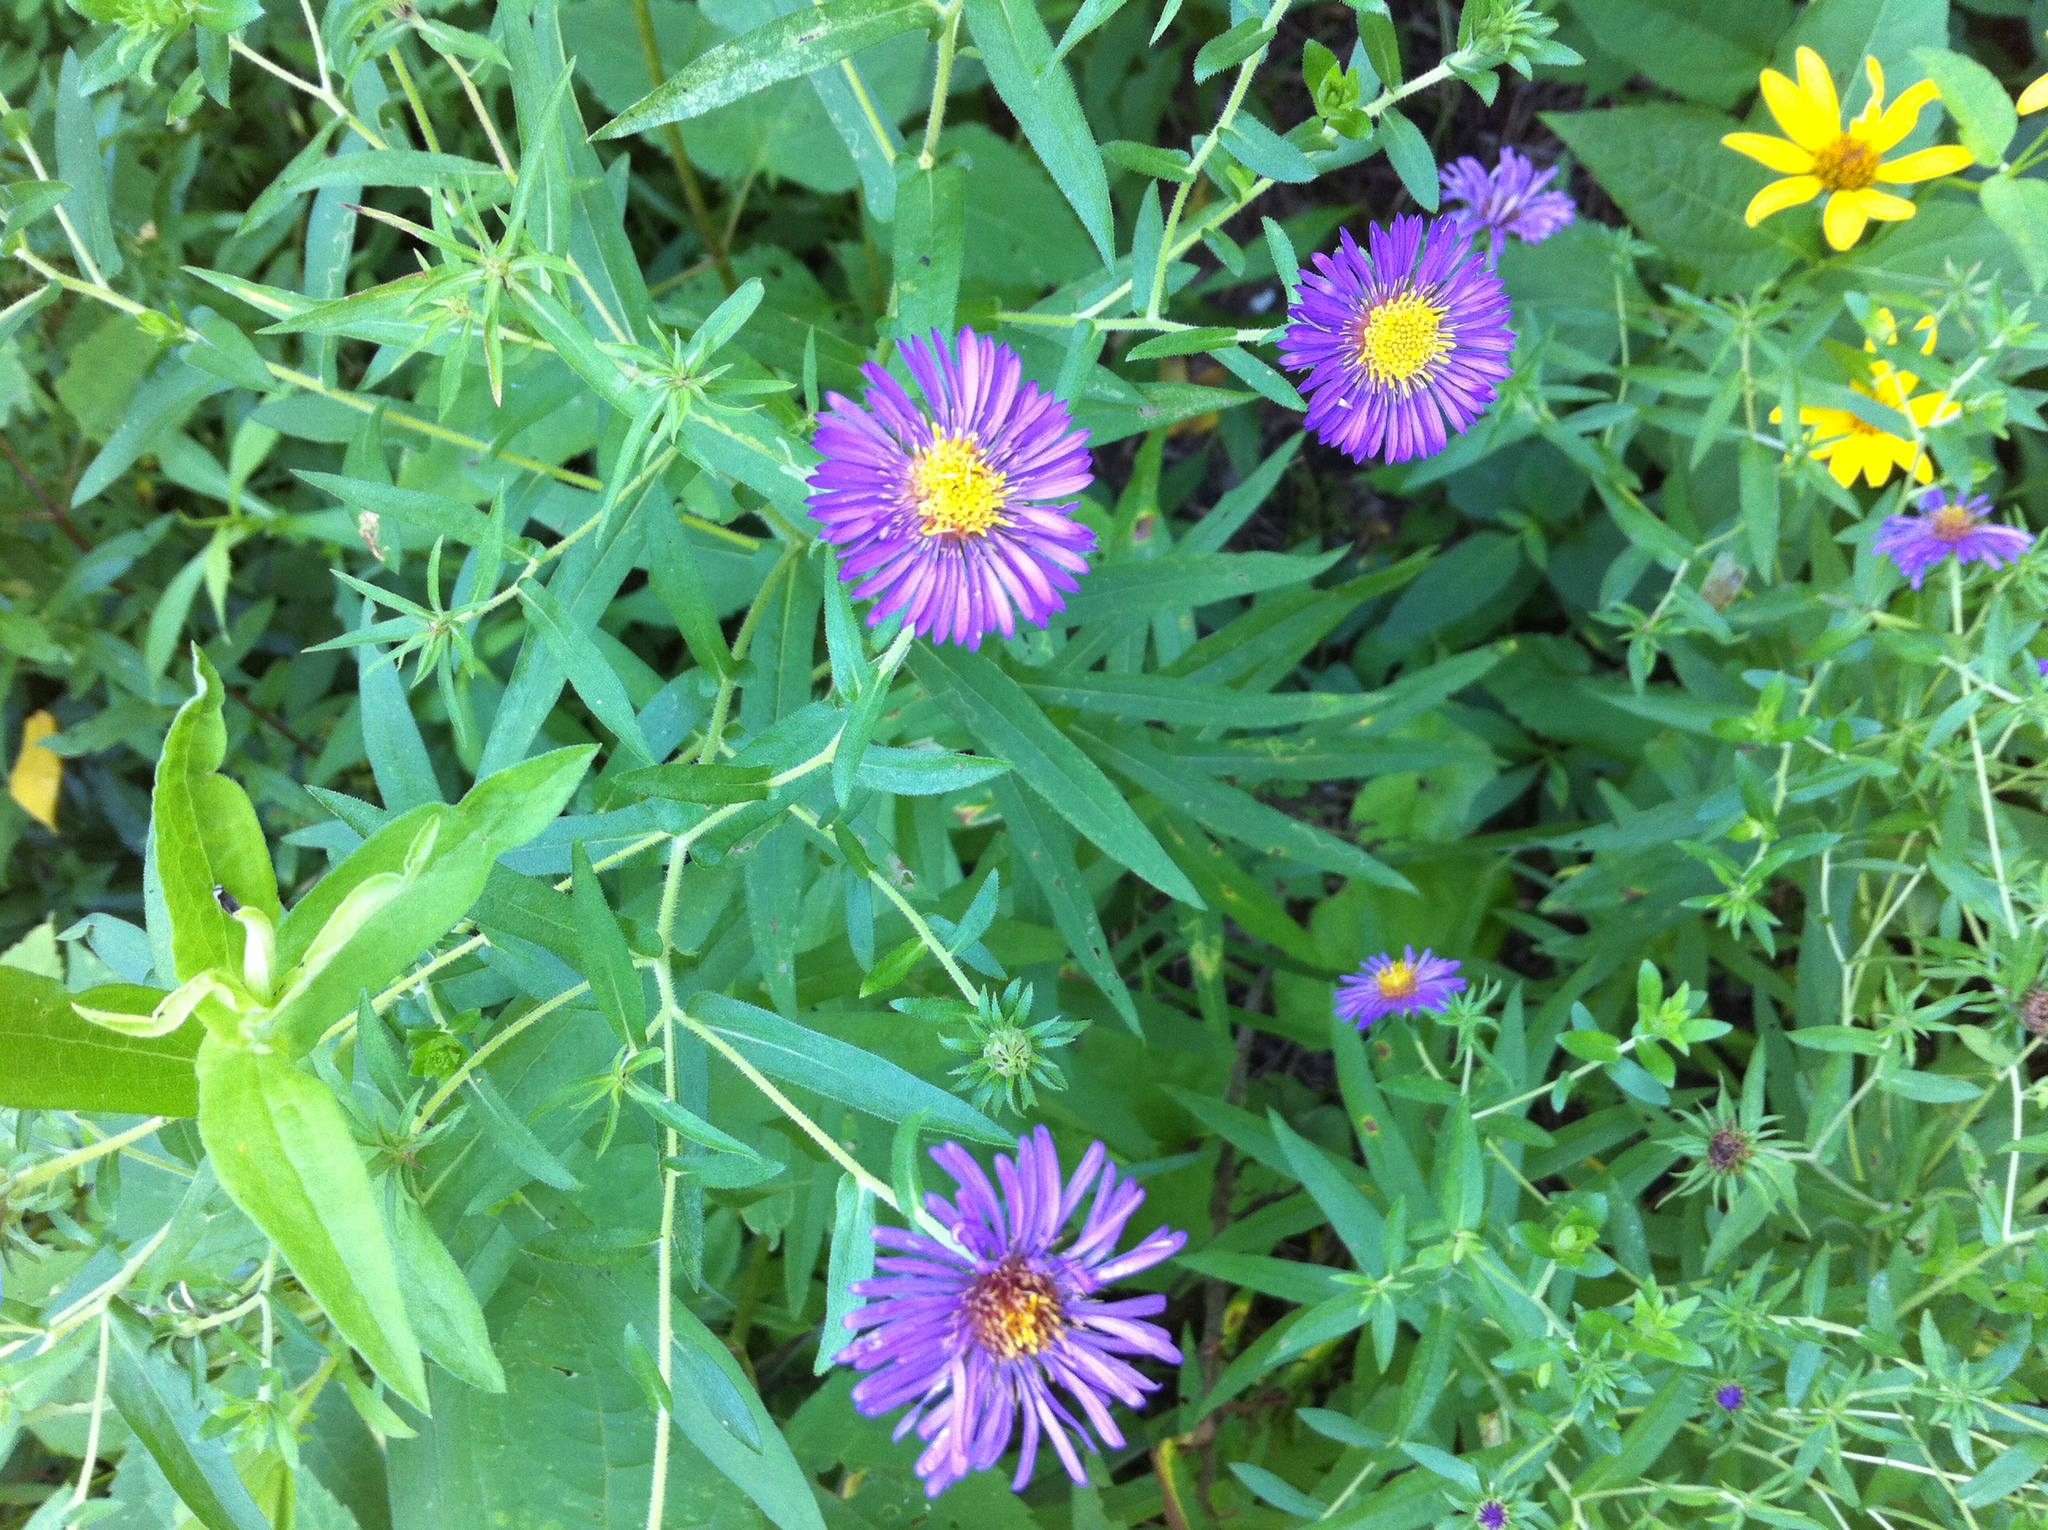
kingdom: Plantae
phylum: Tracheophyta
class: Magnoliopsida
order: Asterales
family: Asteraceae
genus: Symphyotrichum
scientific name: Symphyotrichum novae-angliae
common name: Michaelmas daisy
